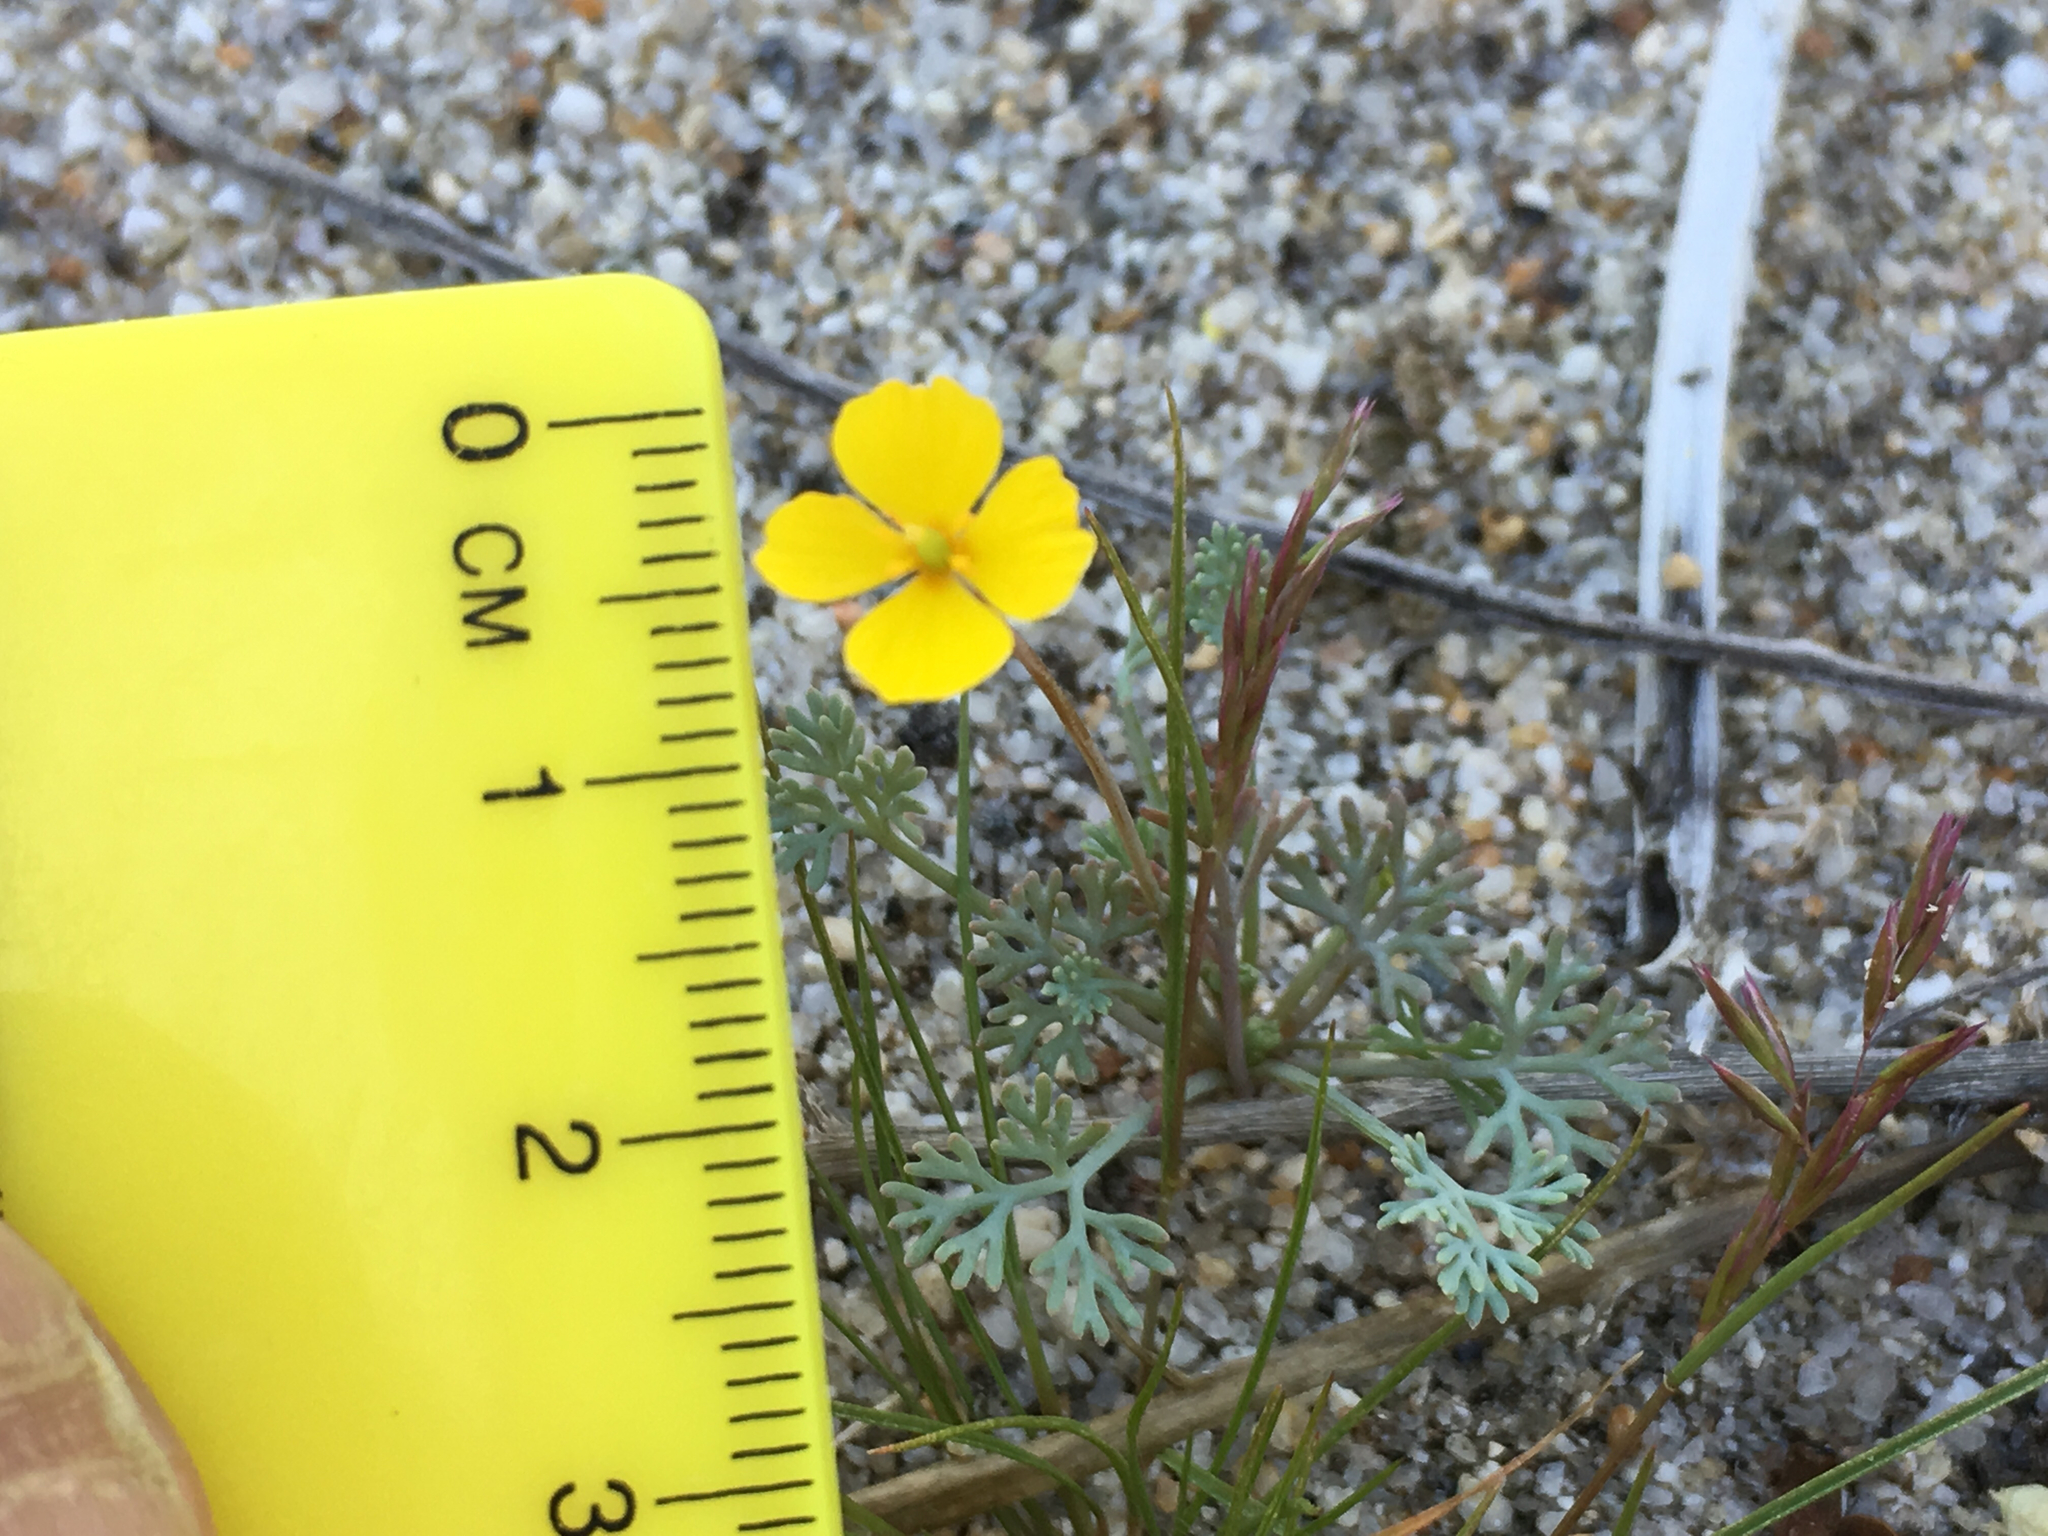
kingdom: Plantae
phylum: Tracheophyta
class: Magnoliopsida
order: Ranunculales
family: Papaveraceae
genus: Eschscholzia
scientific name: Eschscholzia minutiflora
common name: Small-flower california-poppy
